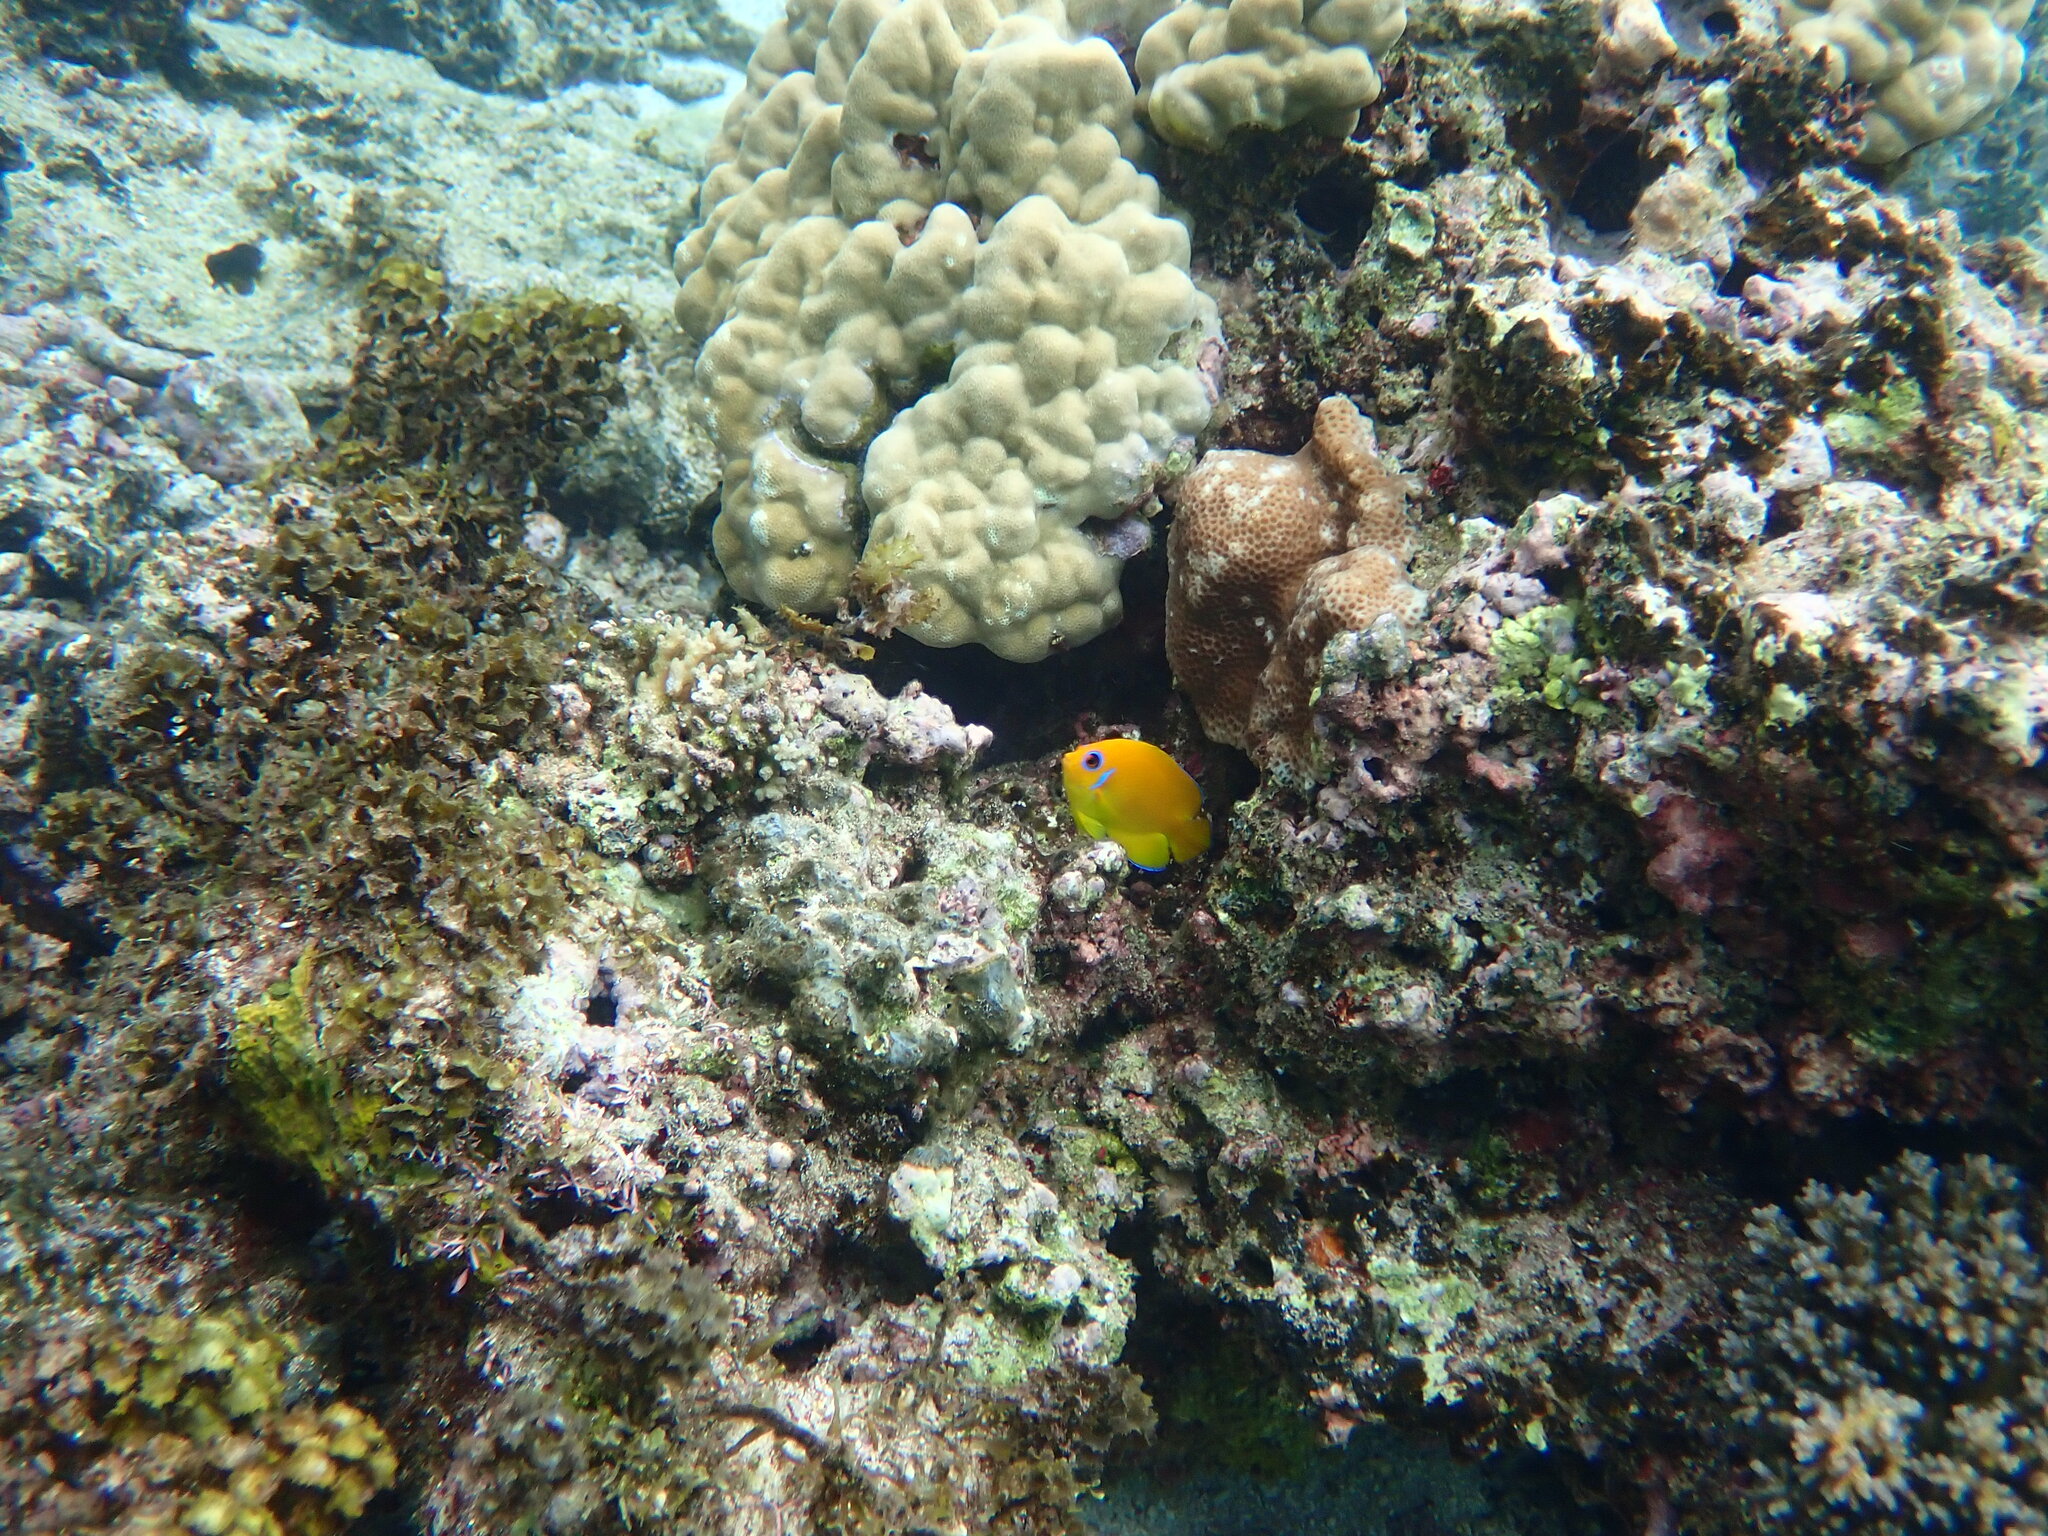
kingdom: Animalia
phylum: Chordata
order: Perciformes
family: Pomacanthidae
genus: Centropyge
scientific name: Centropyge flavissima
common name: Lemonpeel angelfish
